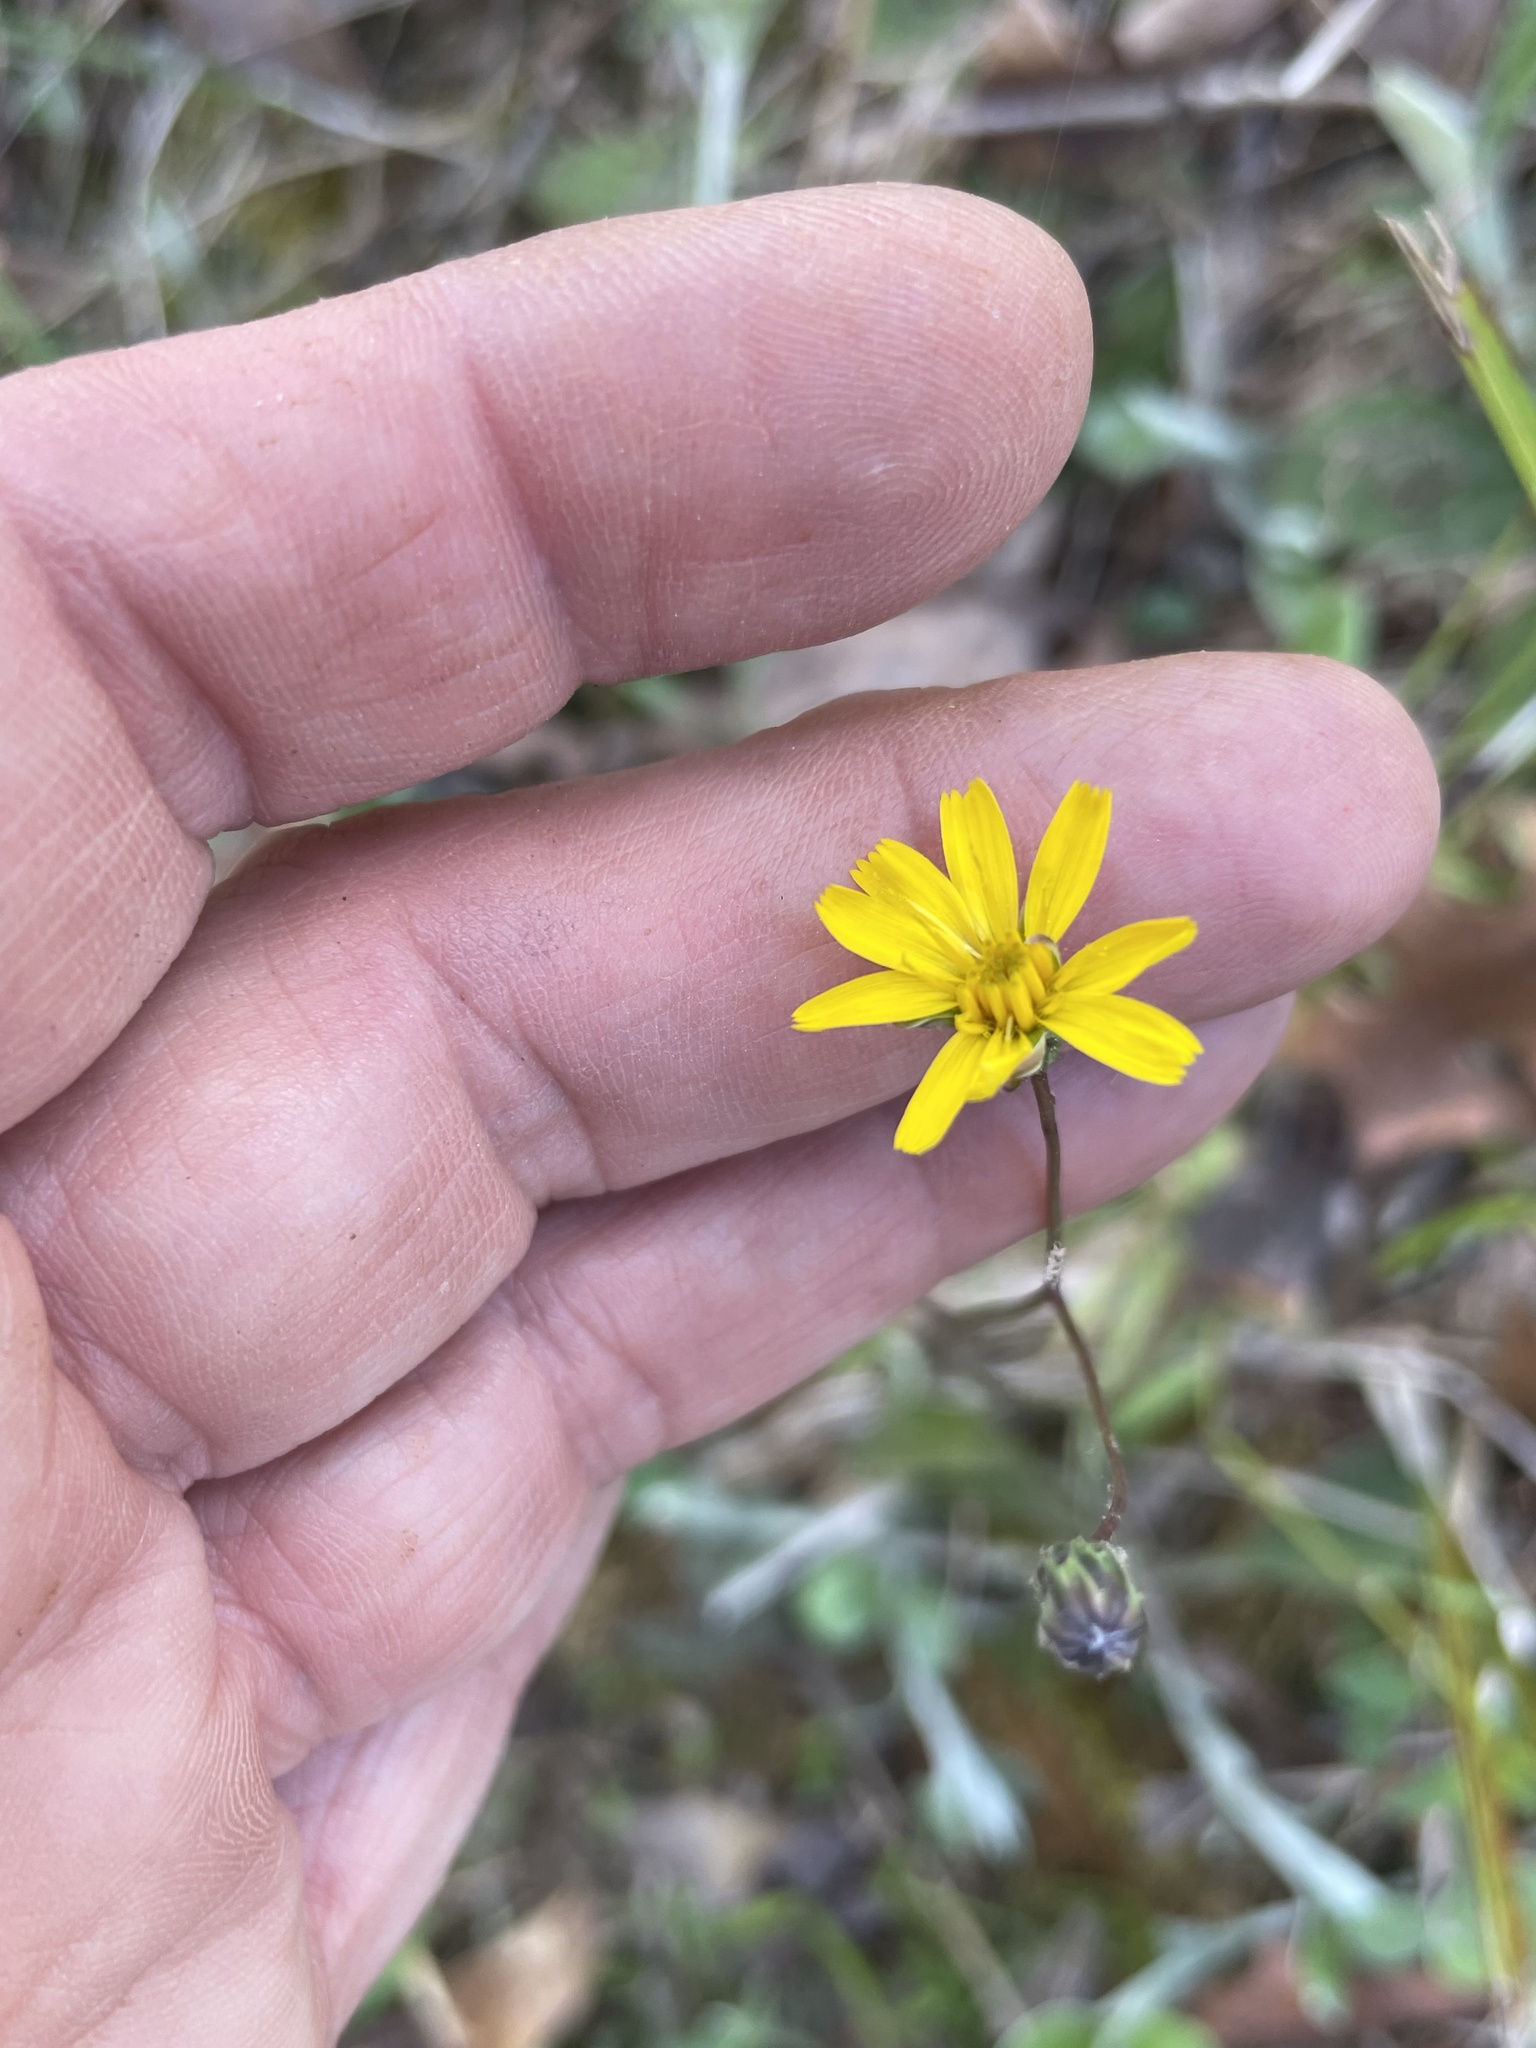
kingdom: Plantae
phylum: Tracheophyta
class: Magnoliopsida
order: Asterales
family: Asteraceae
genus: Hieracium
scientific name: Hieracium venosum
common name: Rattlesnake hawkweed
